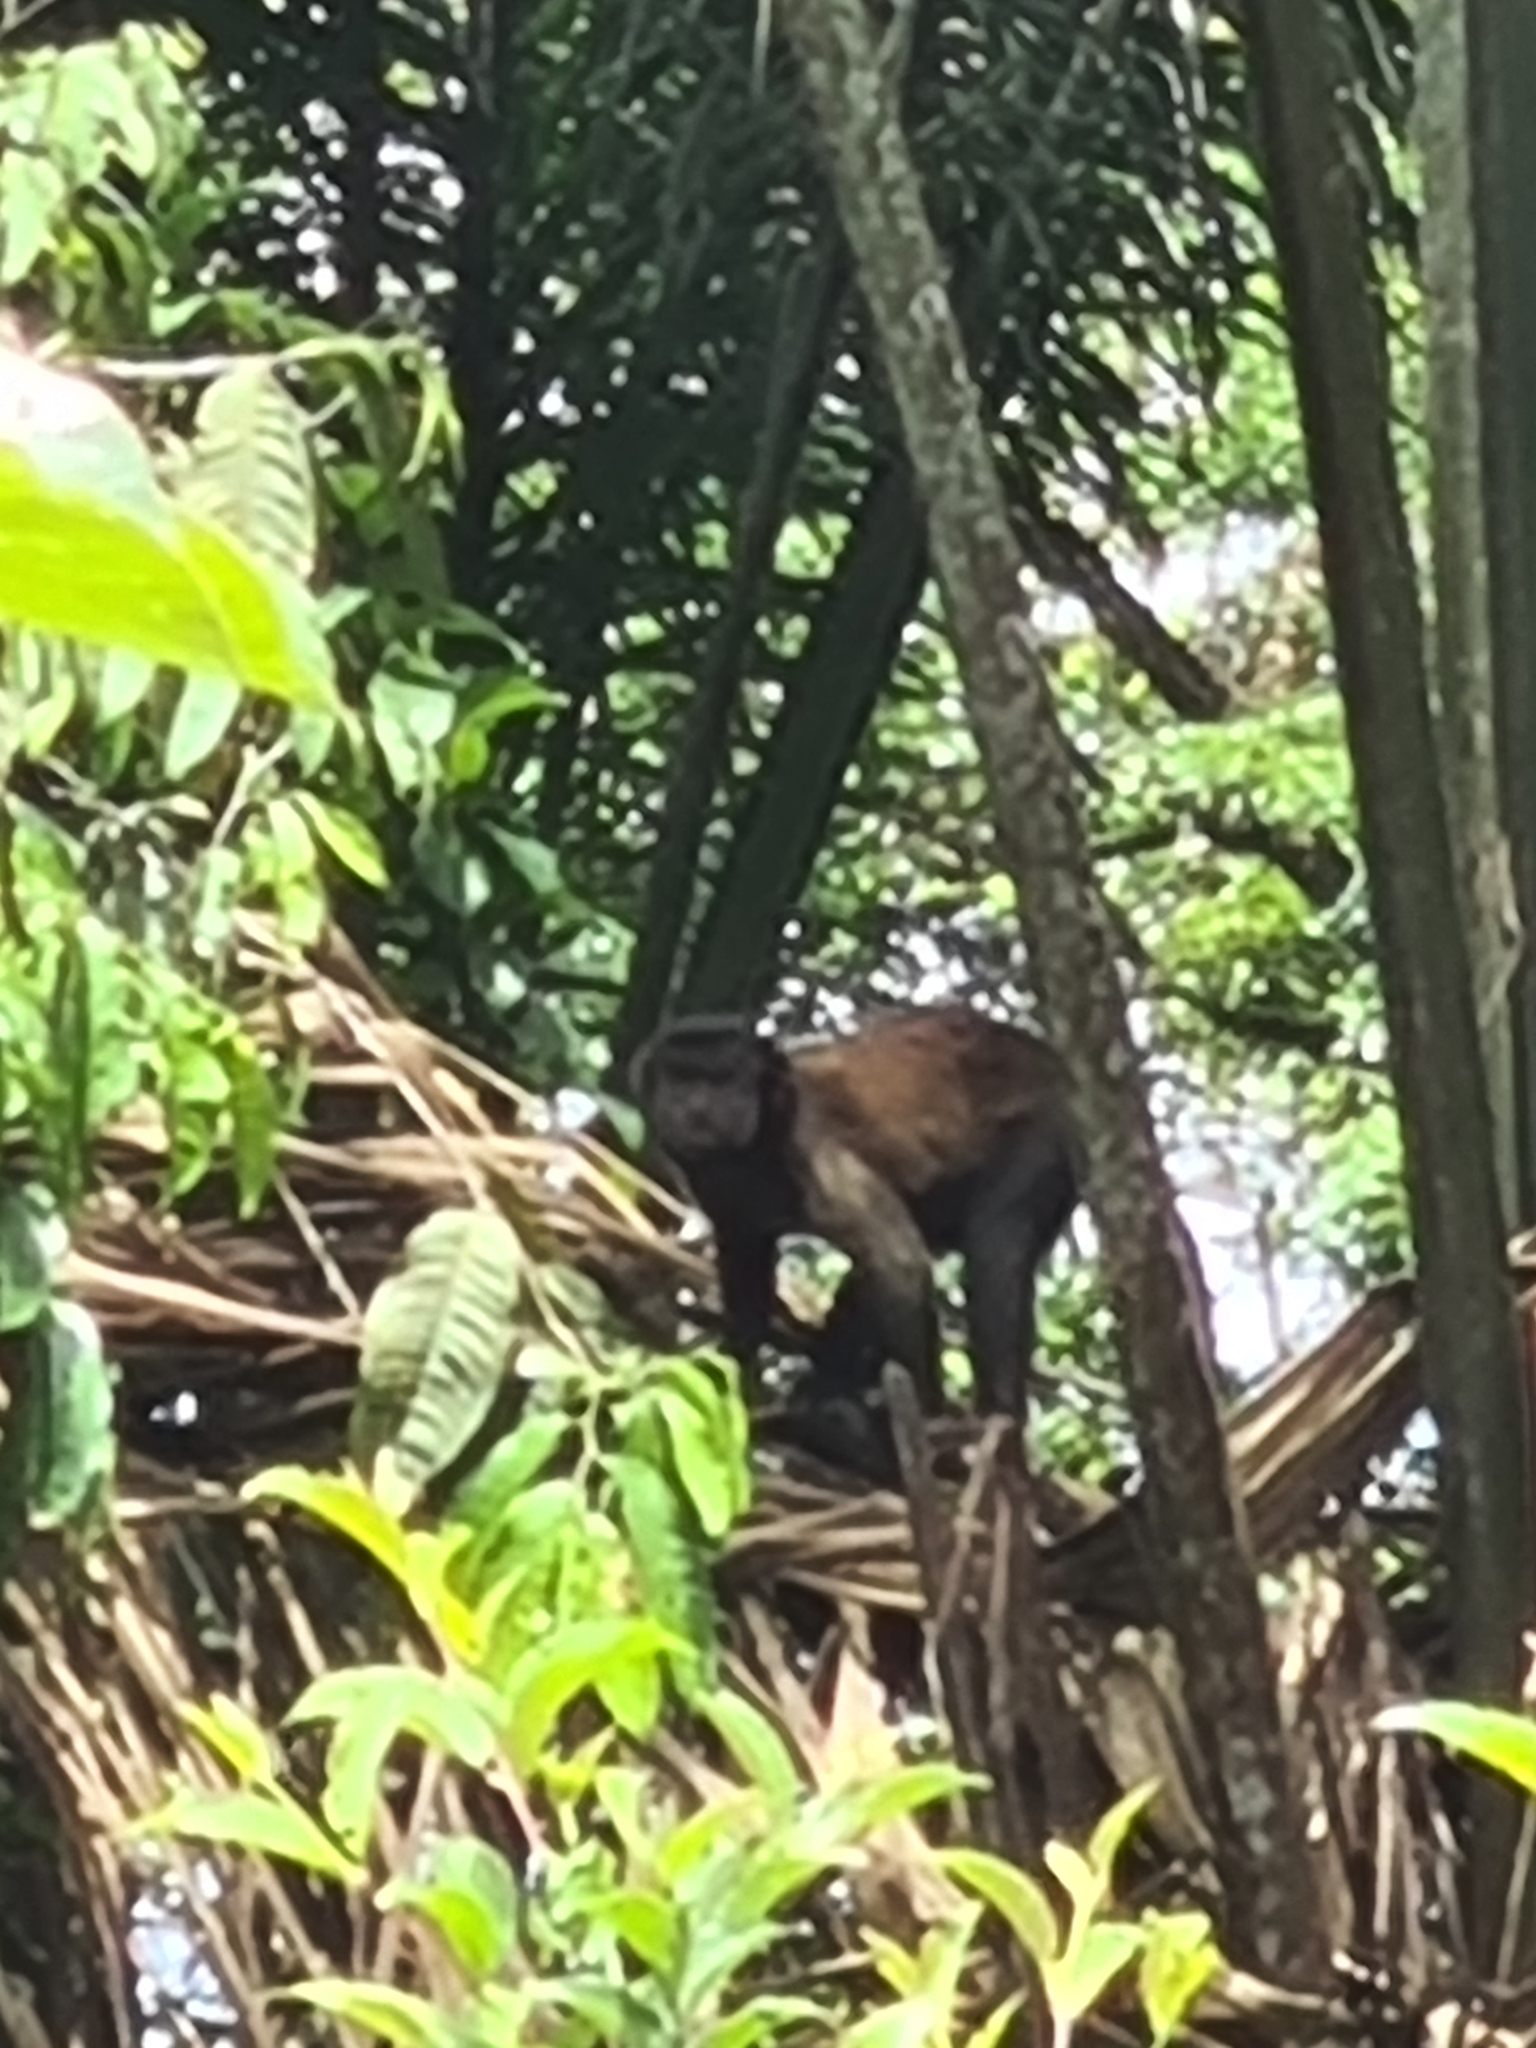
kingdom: Animalia
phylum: Chordata
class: Mammalia
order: Primates
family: Cebidae
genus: Sapajus
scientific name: Sapajus apella
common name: Tufted capuchin
